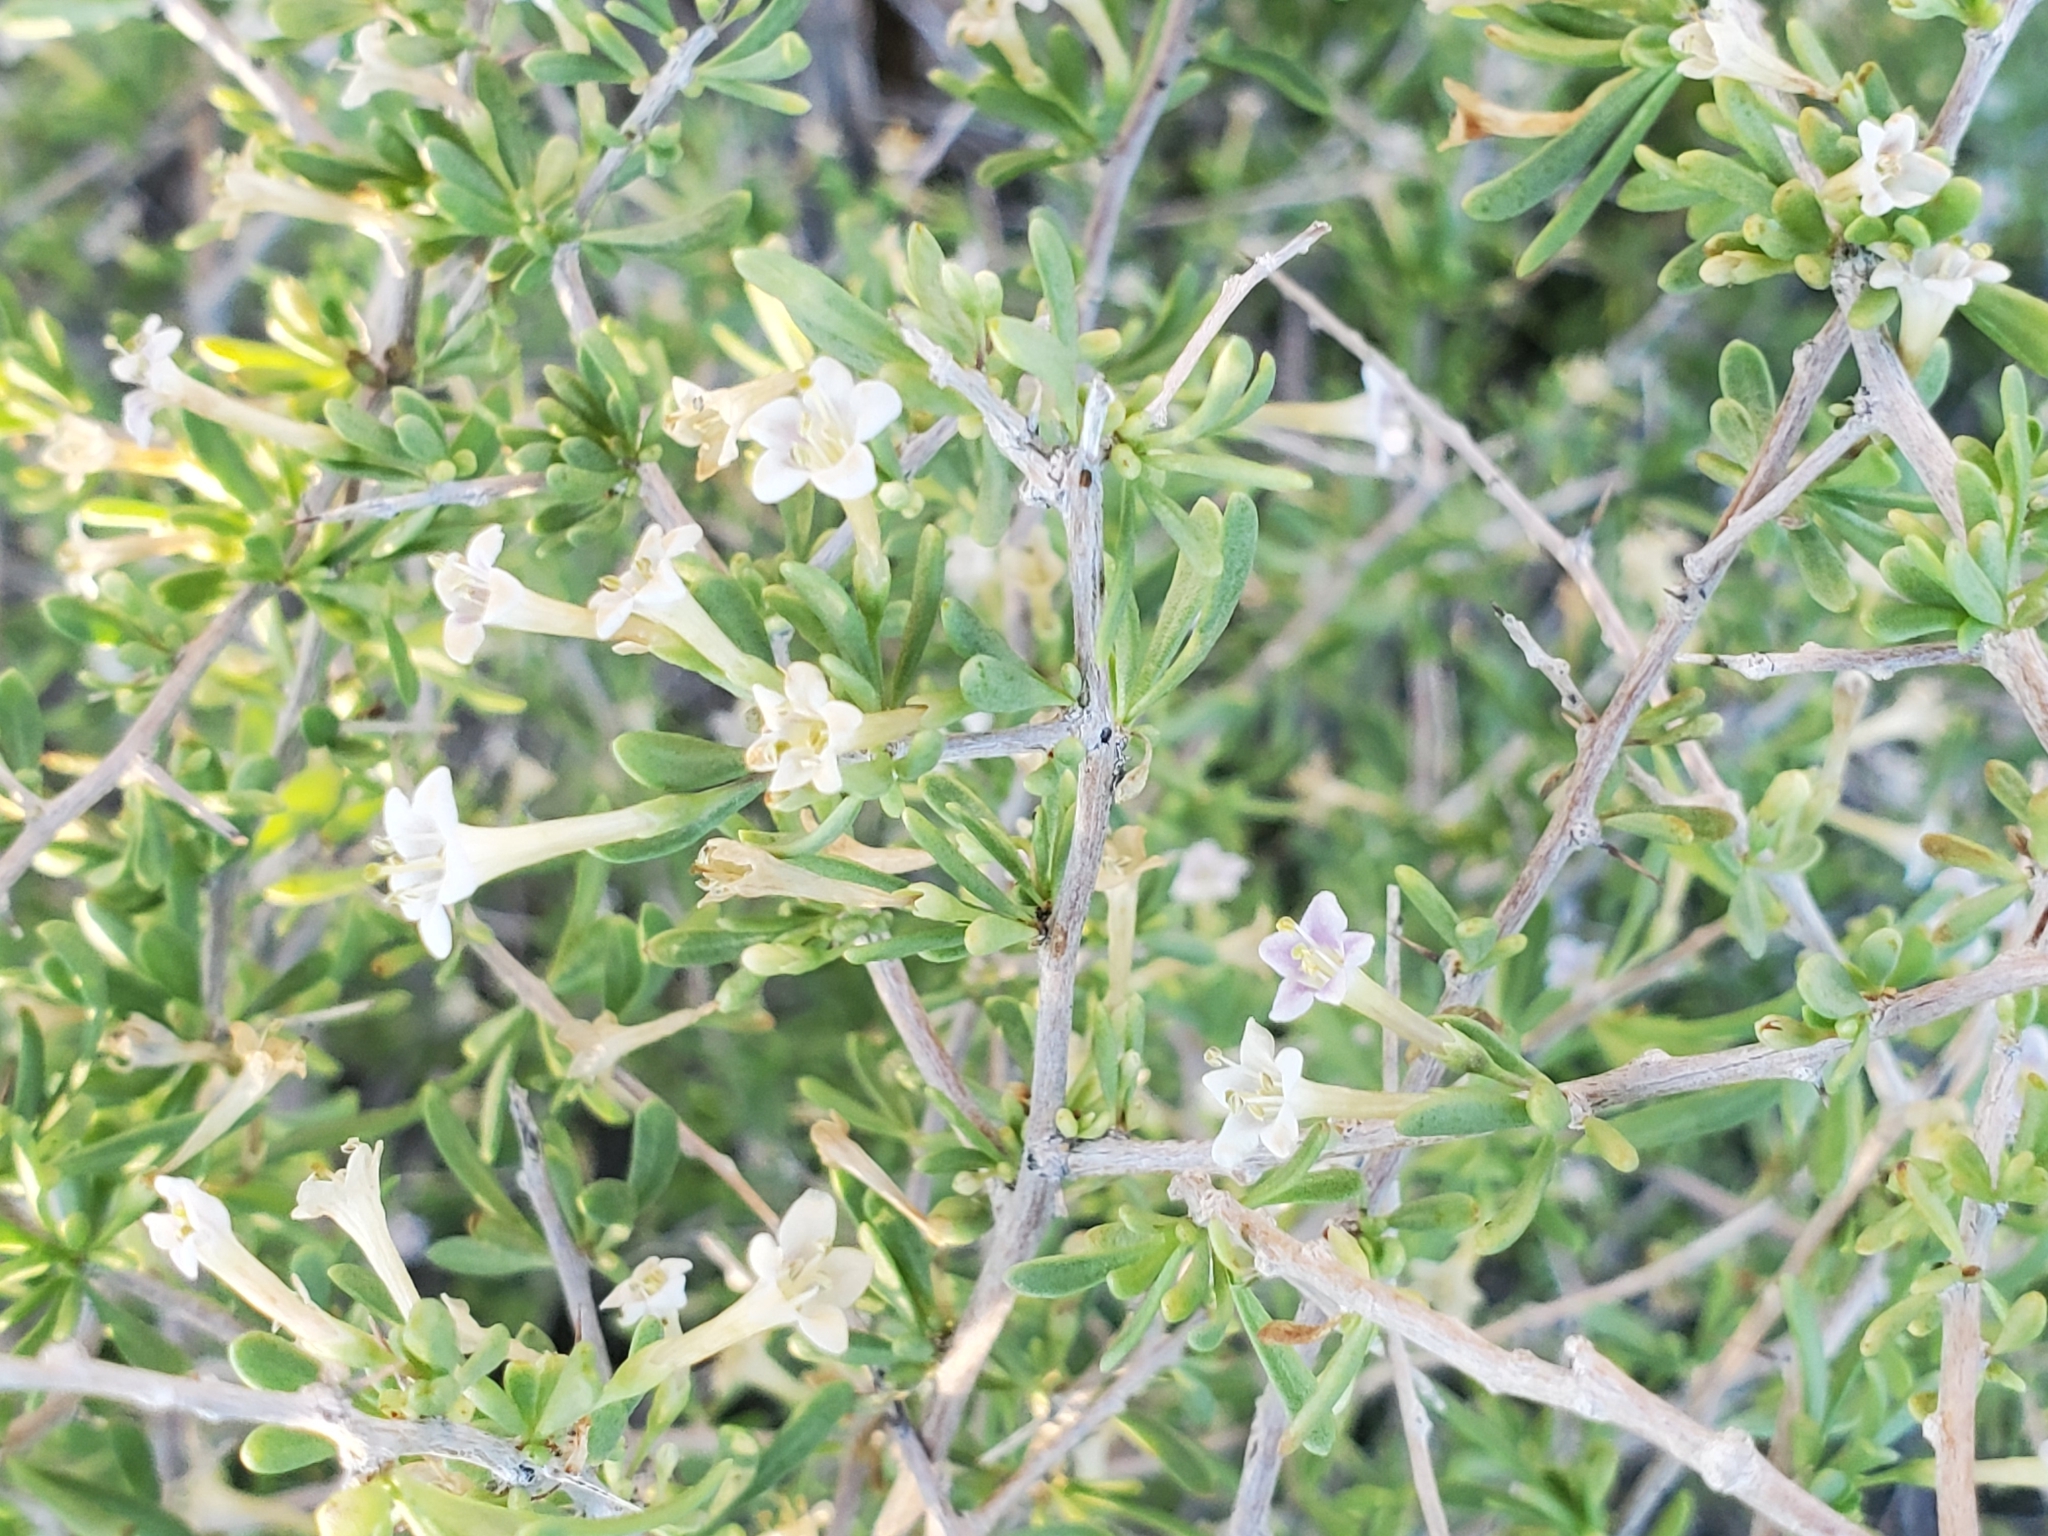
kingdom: Plantae
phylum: Tracheophyta
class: Magnoliopsida
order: Solanales
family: Solanaceae
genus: Lycium
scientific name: Lycium andersonii
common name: Water-jacket
